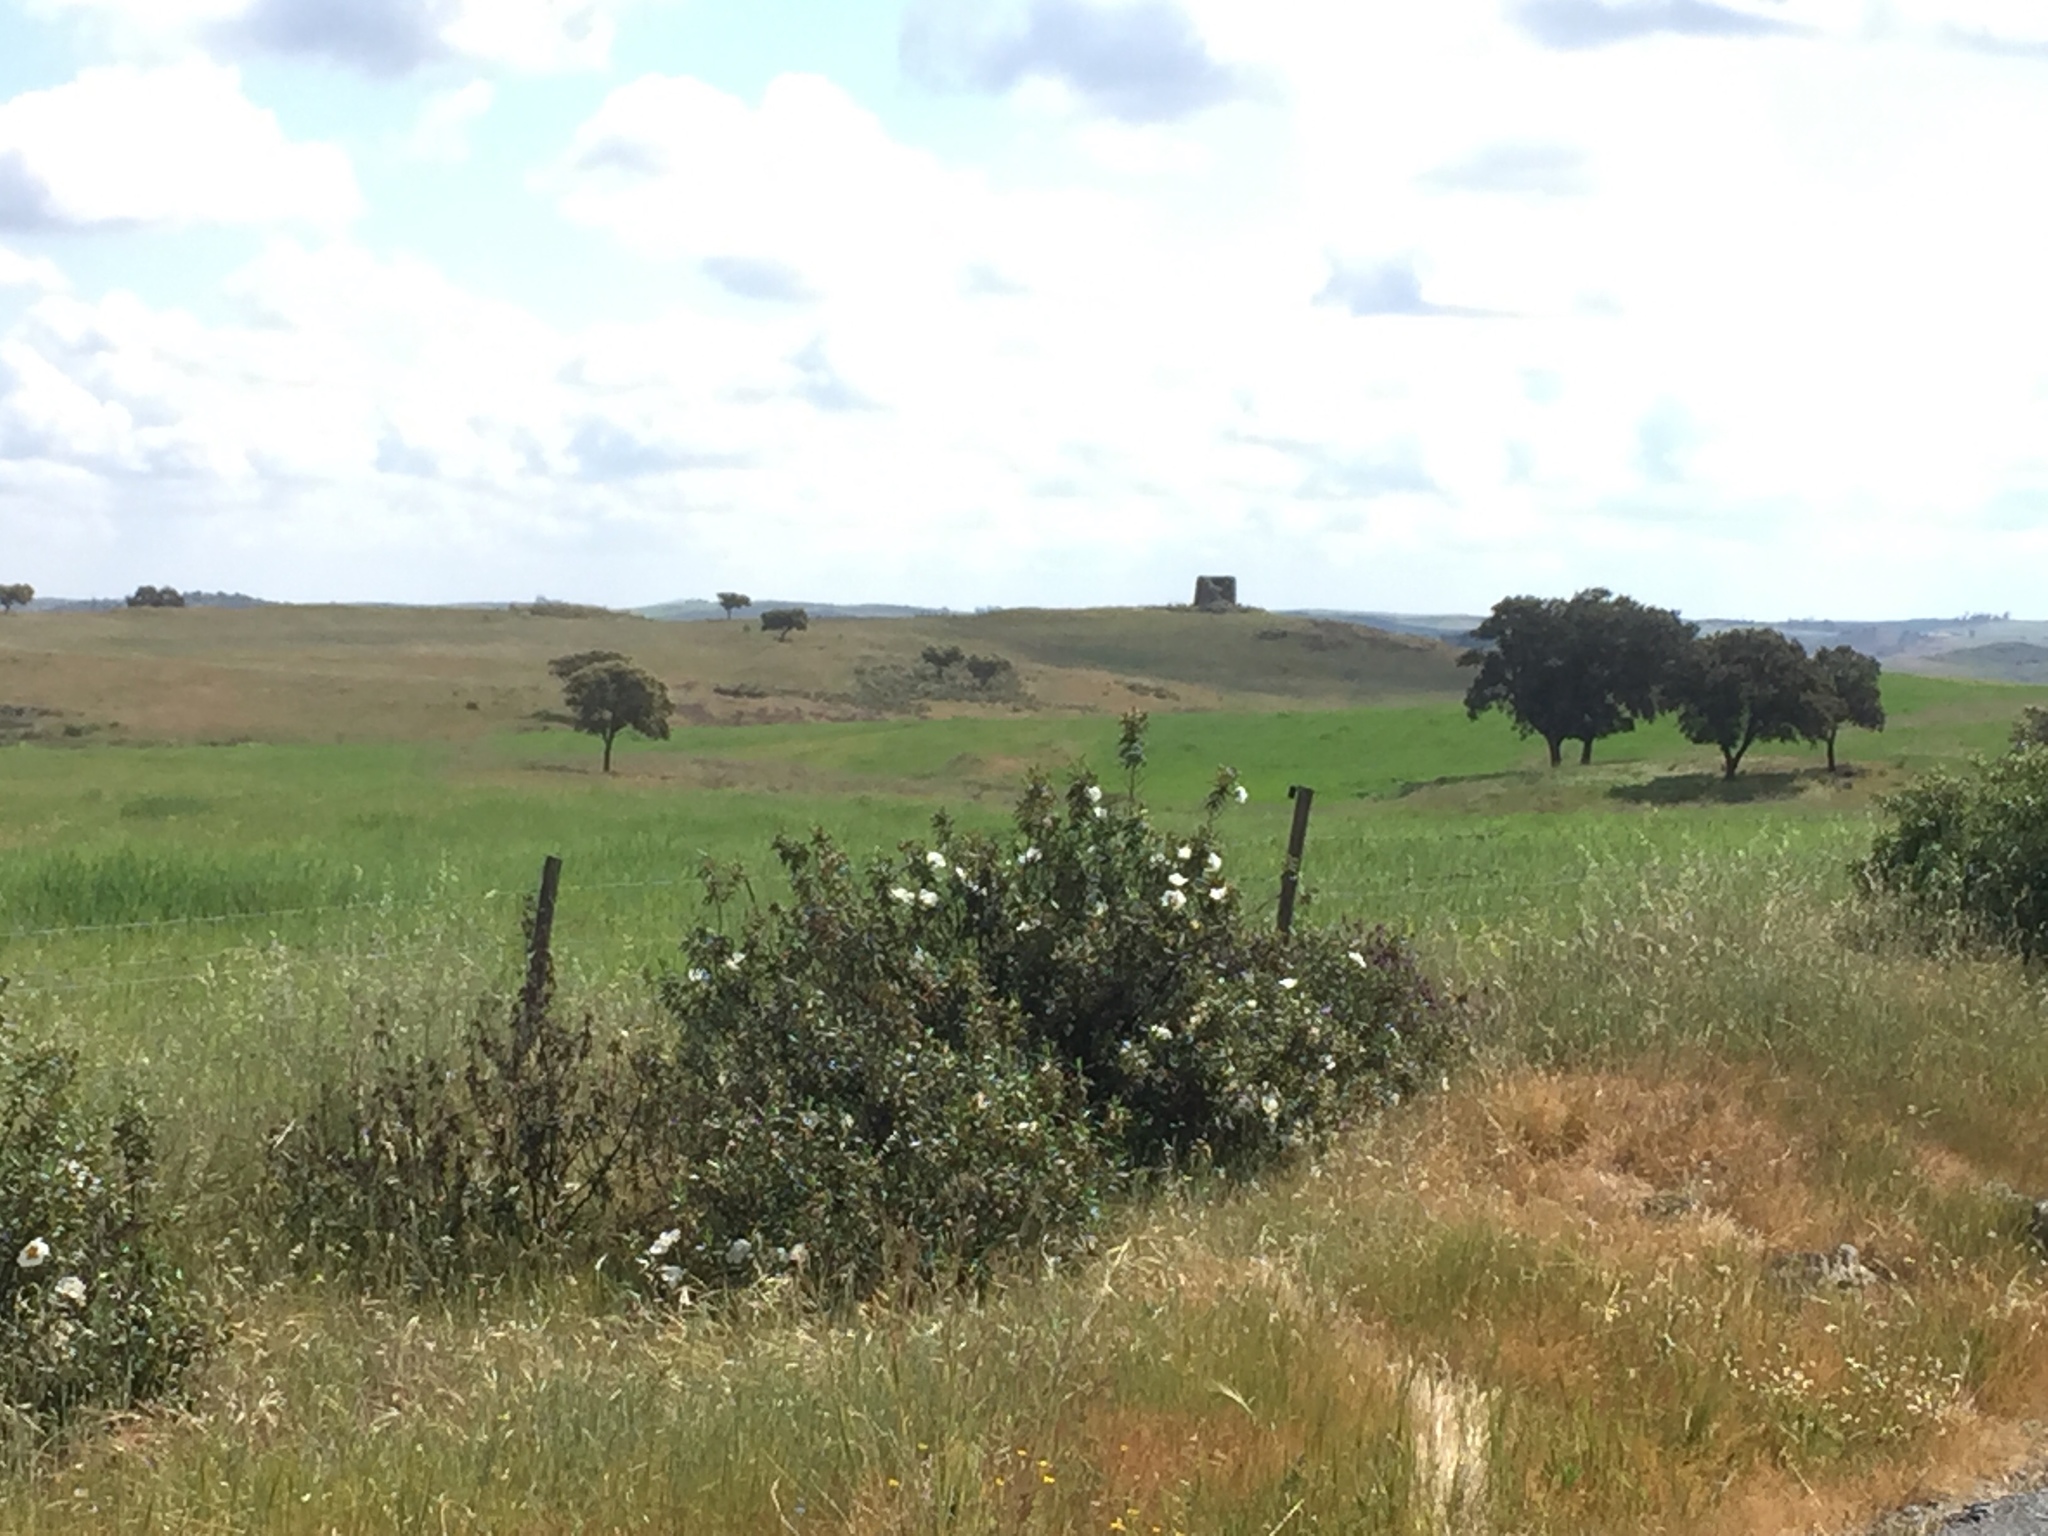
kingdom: Plantae
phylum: Tracheophyta
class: Magnoliopsida
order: Malvales
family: Cistaceae
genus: Cistus
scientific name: Cistus ladanifer
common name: Common gum cistus
